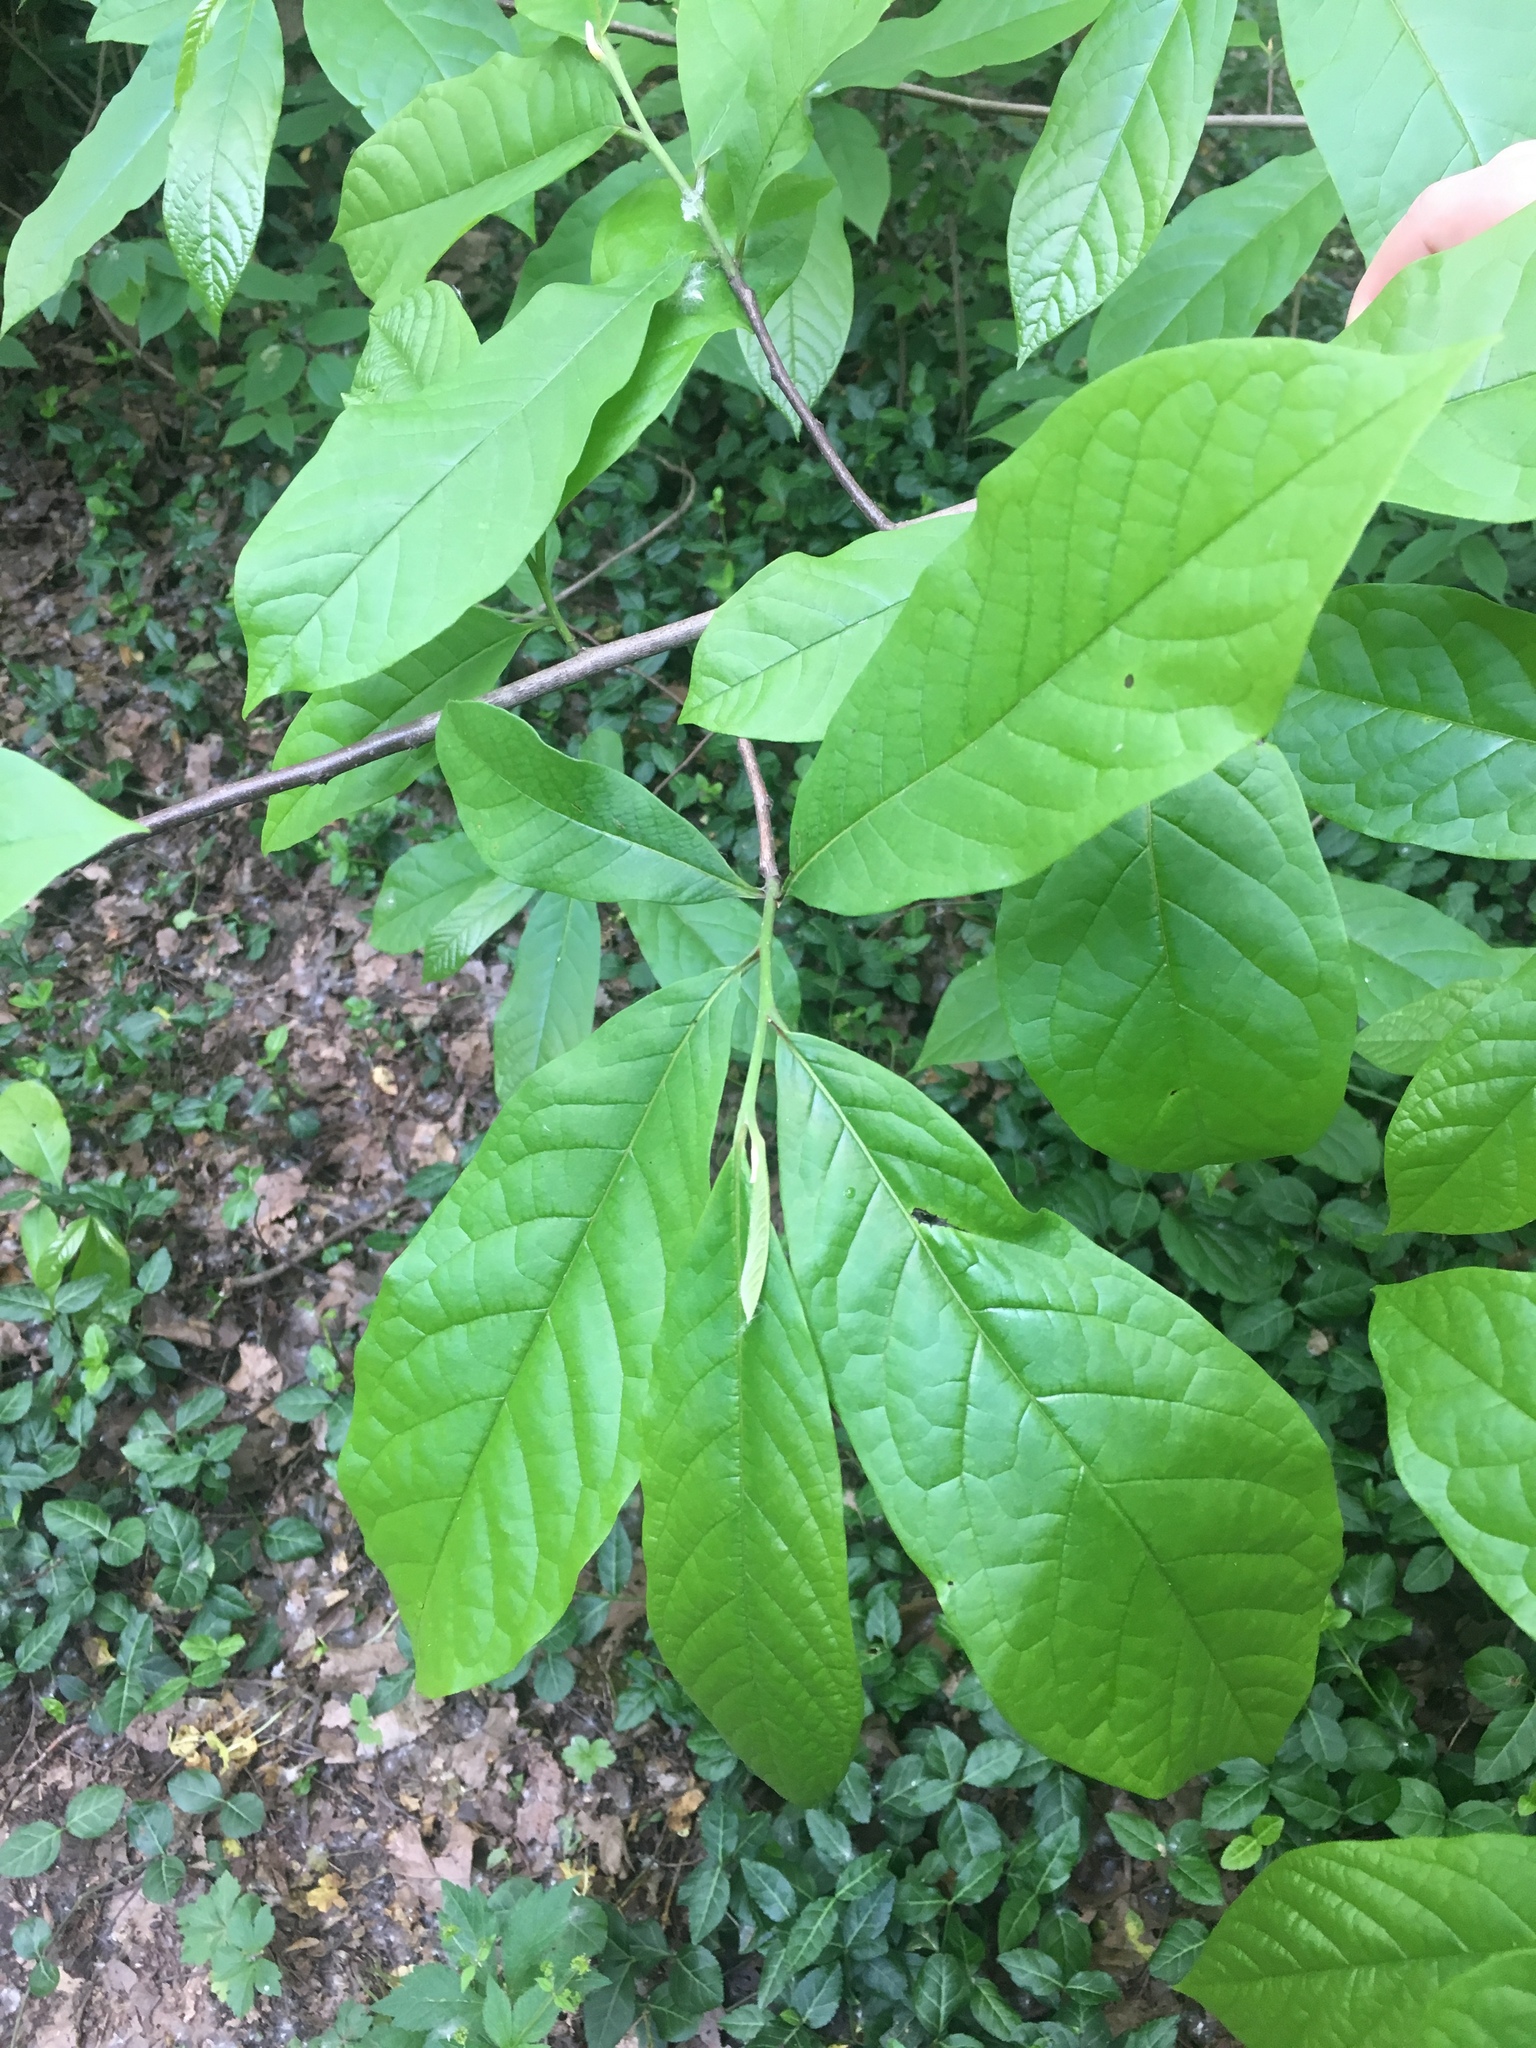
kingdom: Plantae
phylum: Tracheophyta
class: Magnoliopsida
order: Magnoliales
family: Annonaceae
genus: Asimina
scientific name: Asimina triloba
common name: Dog-banana
